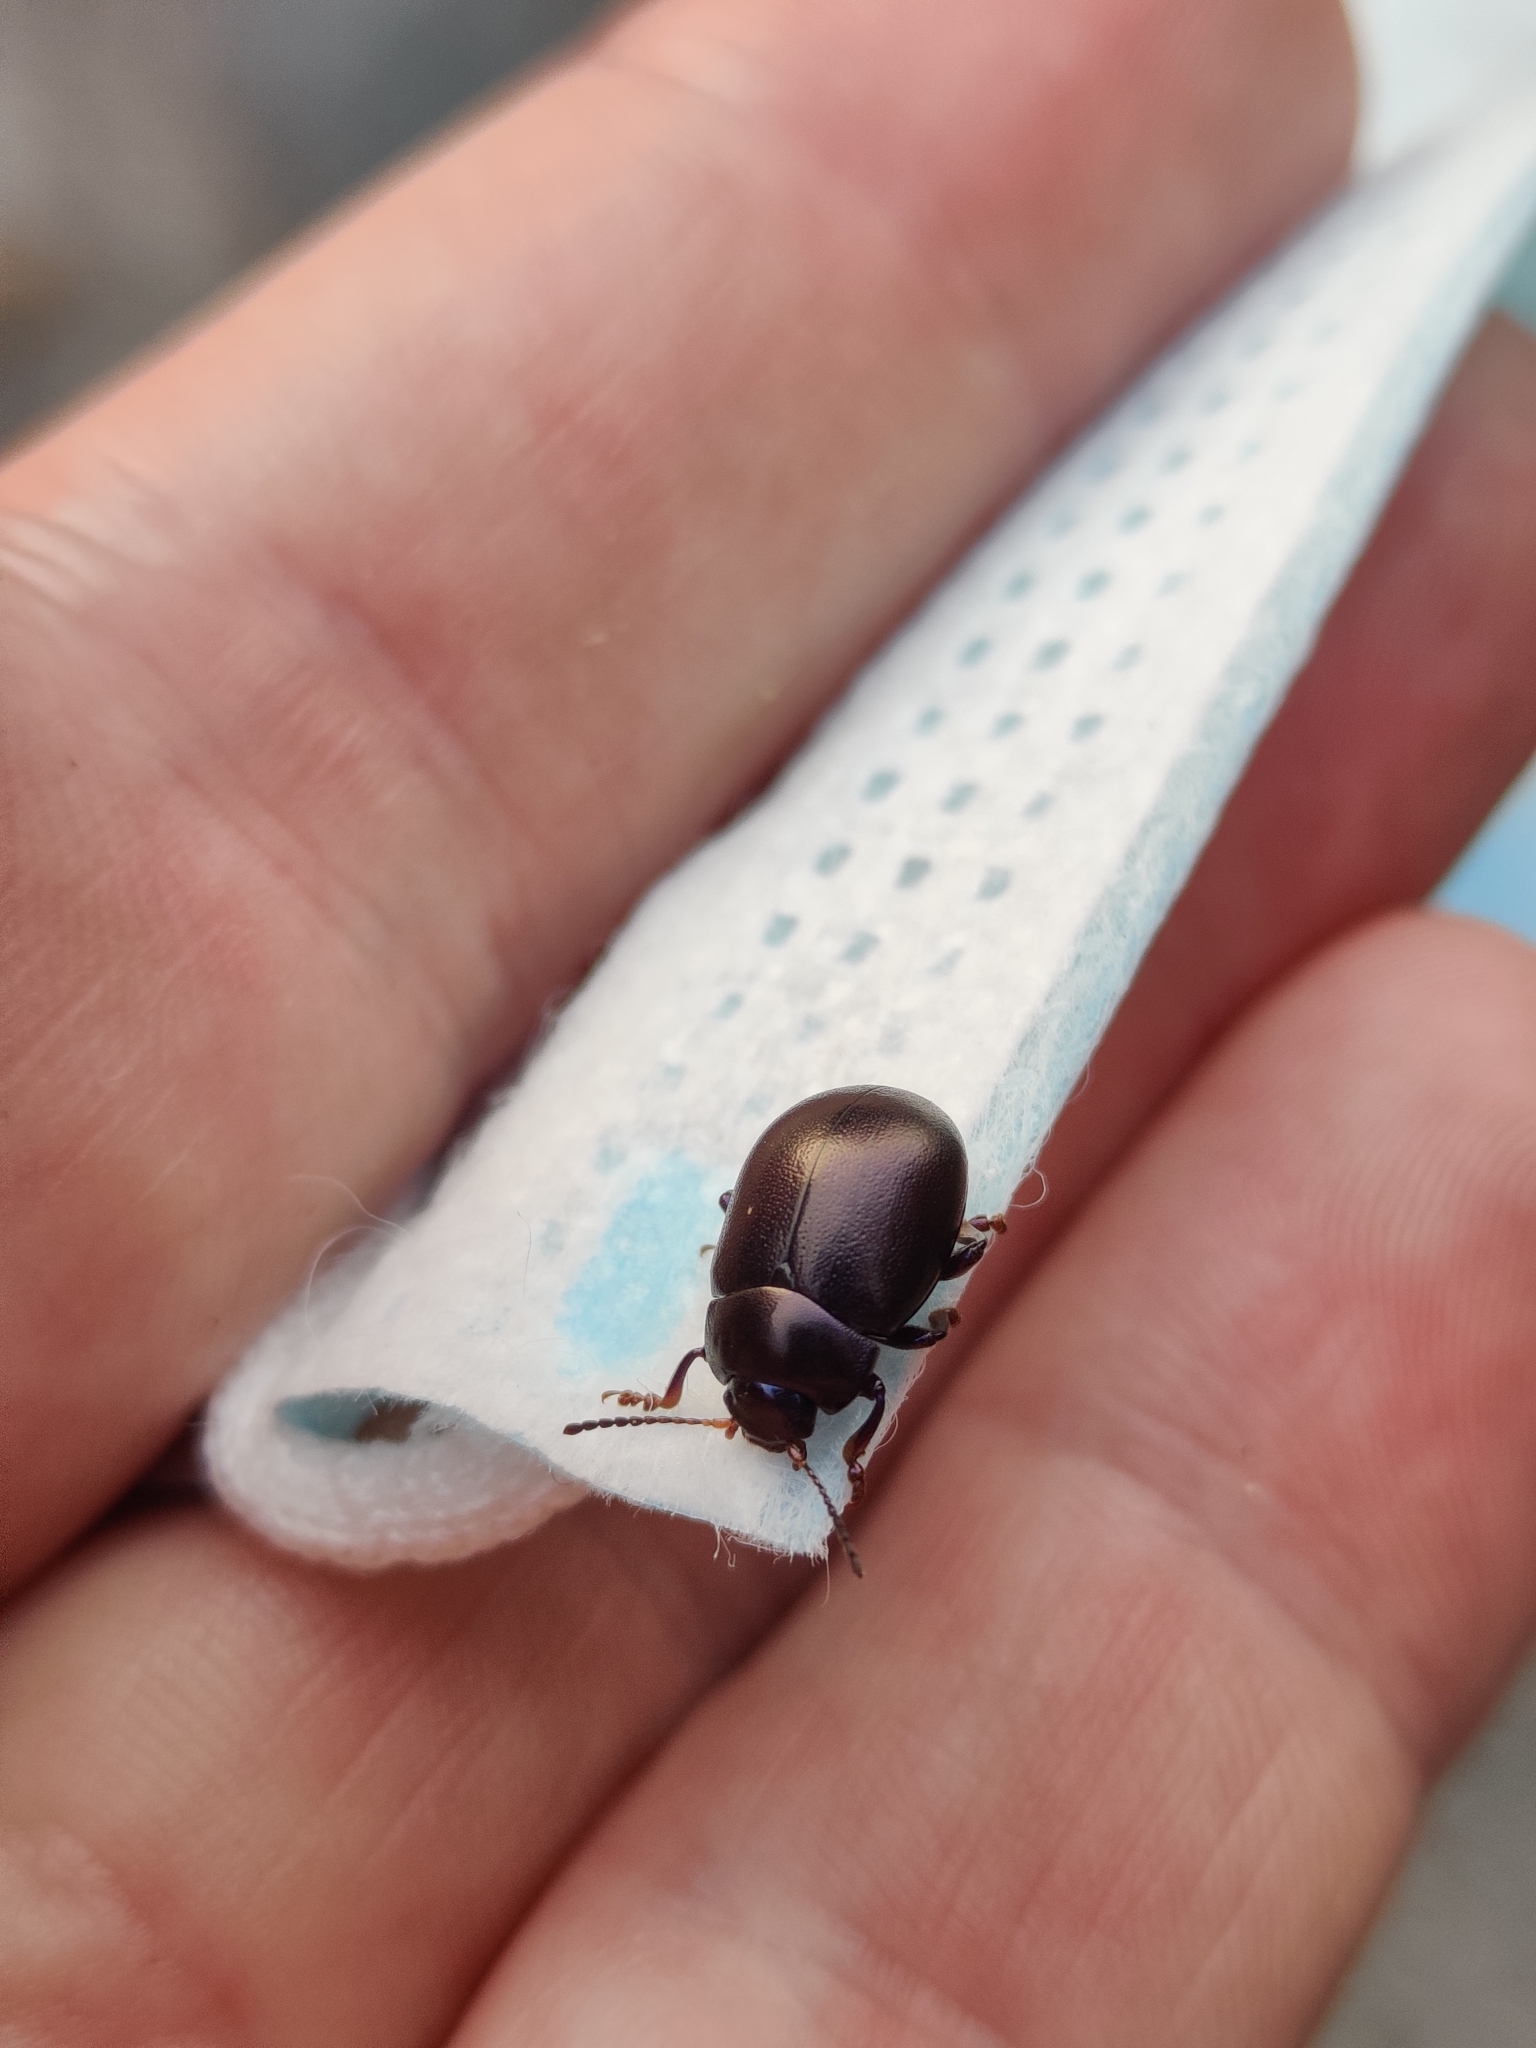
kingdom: Animalia
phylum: Arthropoda
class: Insecta
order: Coleoptera
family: Chrysomelidae
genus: Chrysolina
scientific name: Chrysolina sturmi
